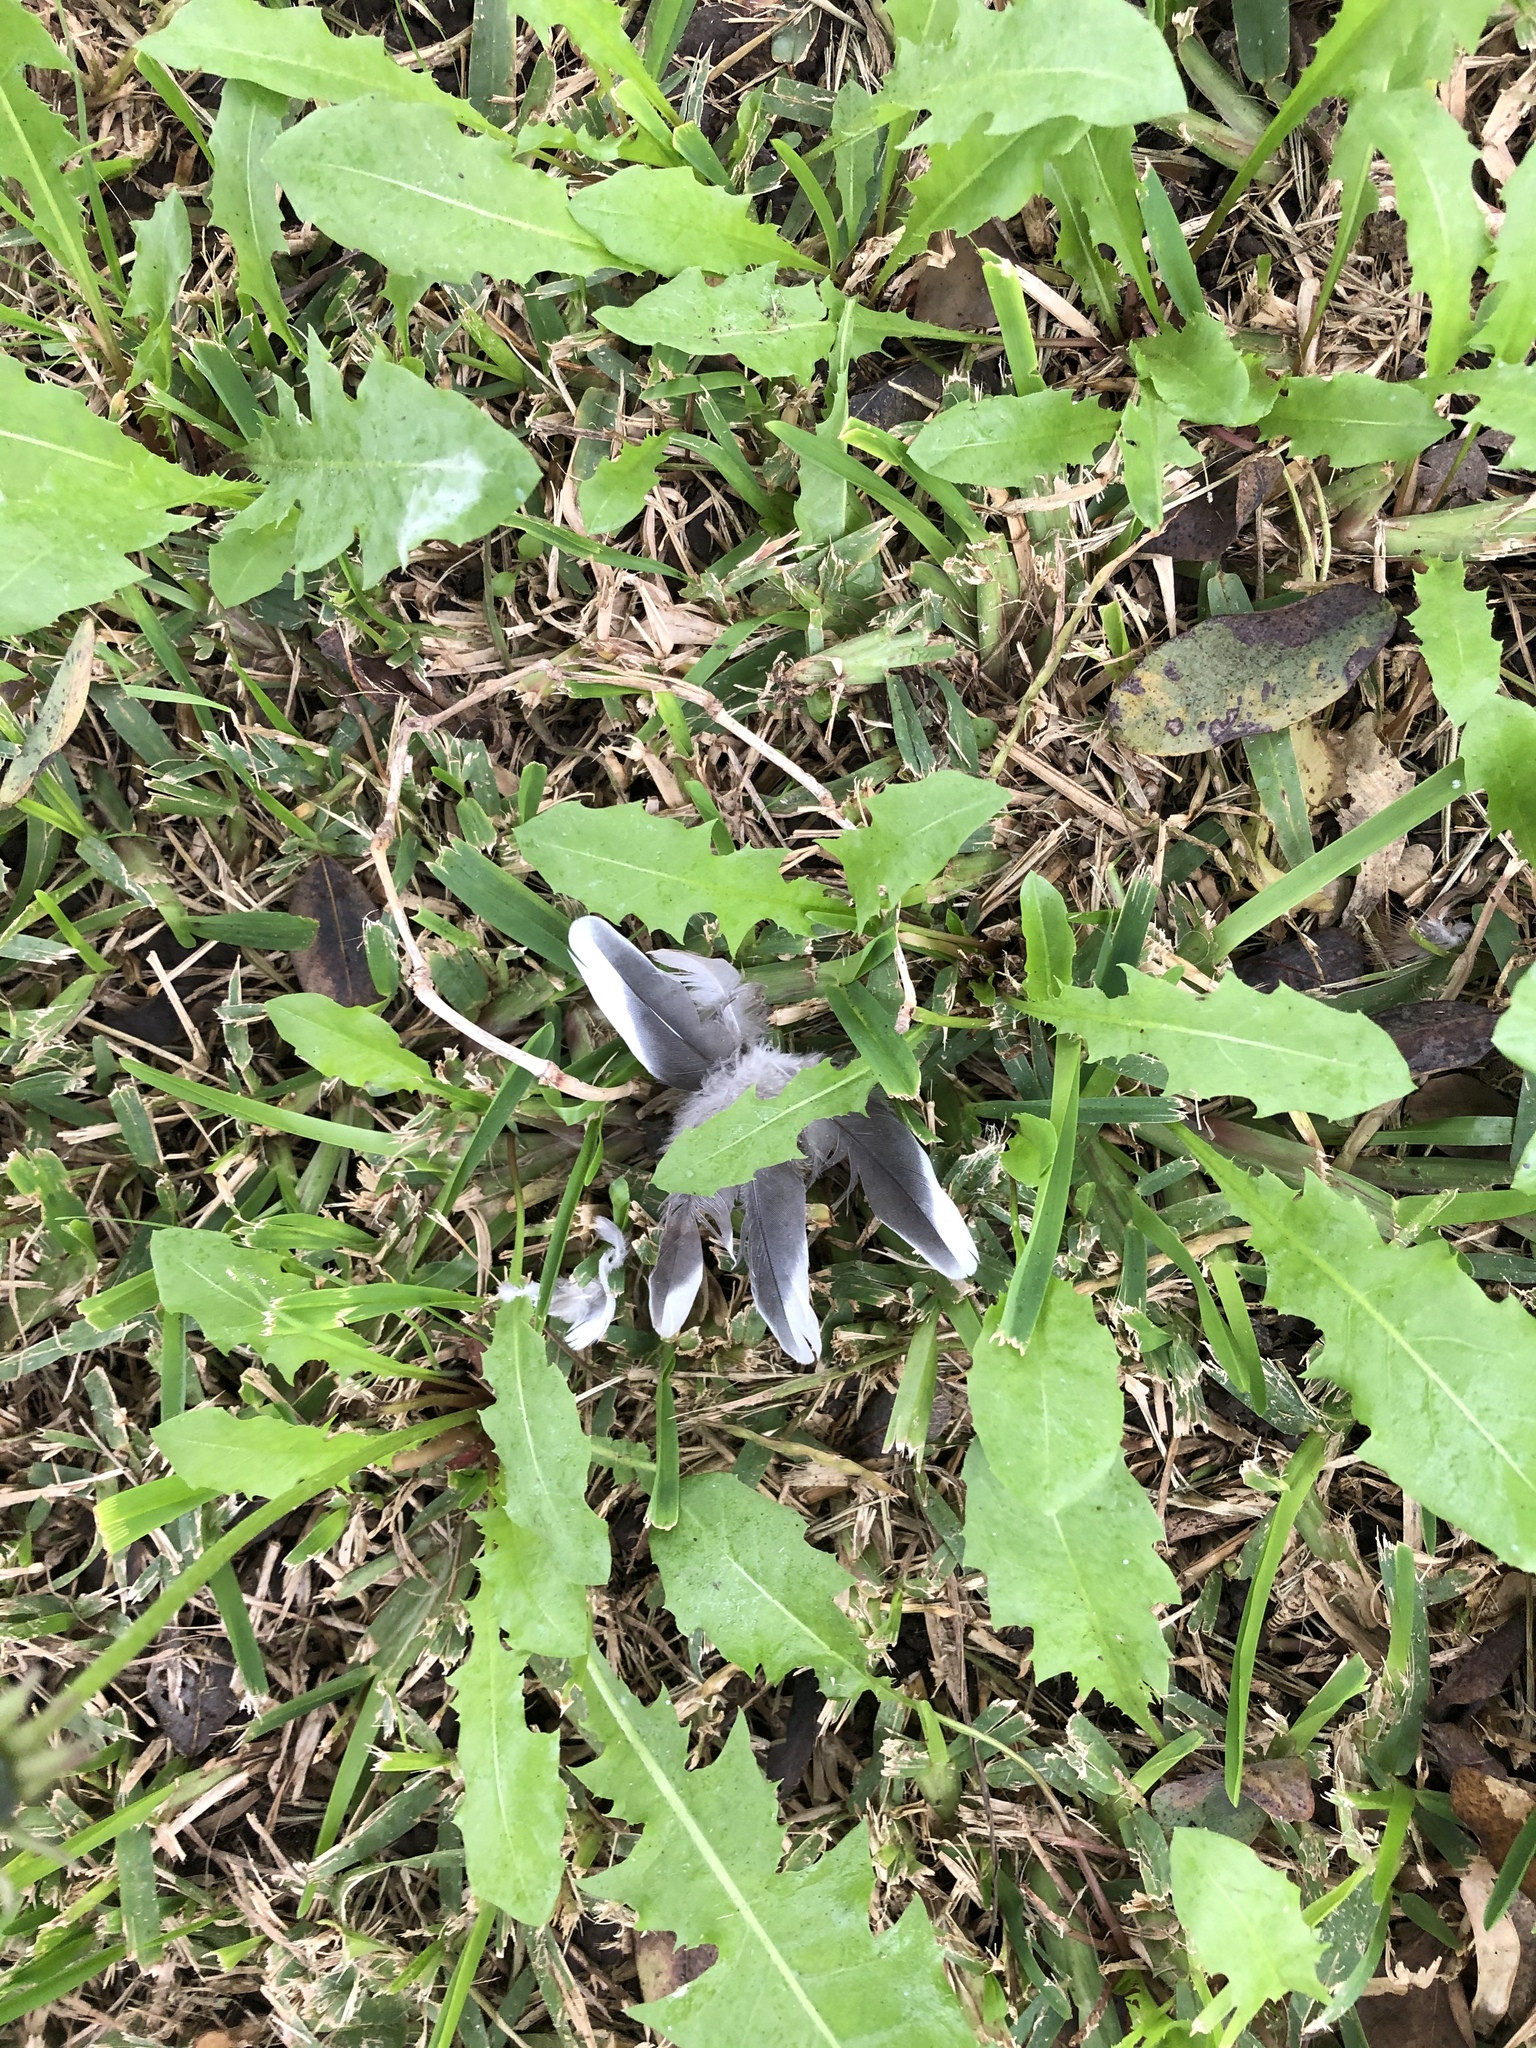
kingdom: Animalia
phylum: Chordata
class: Aves
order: Columbiformes
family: Columbidae
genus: Zenaida
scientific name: Zenaida meloda
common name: West peruvian dove
